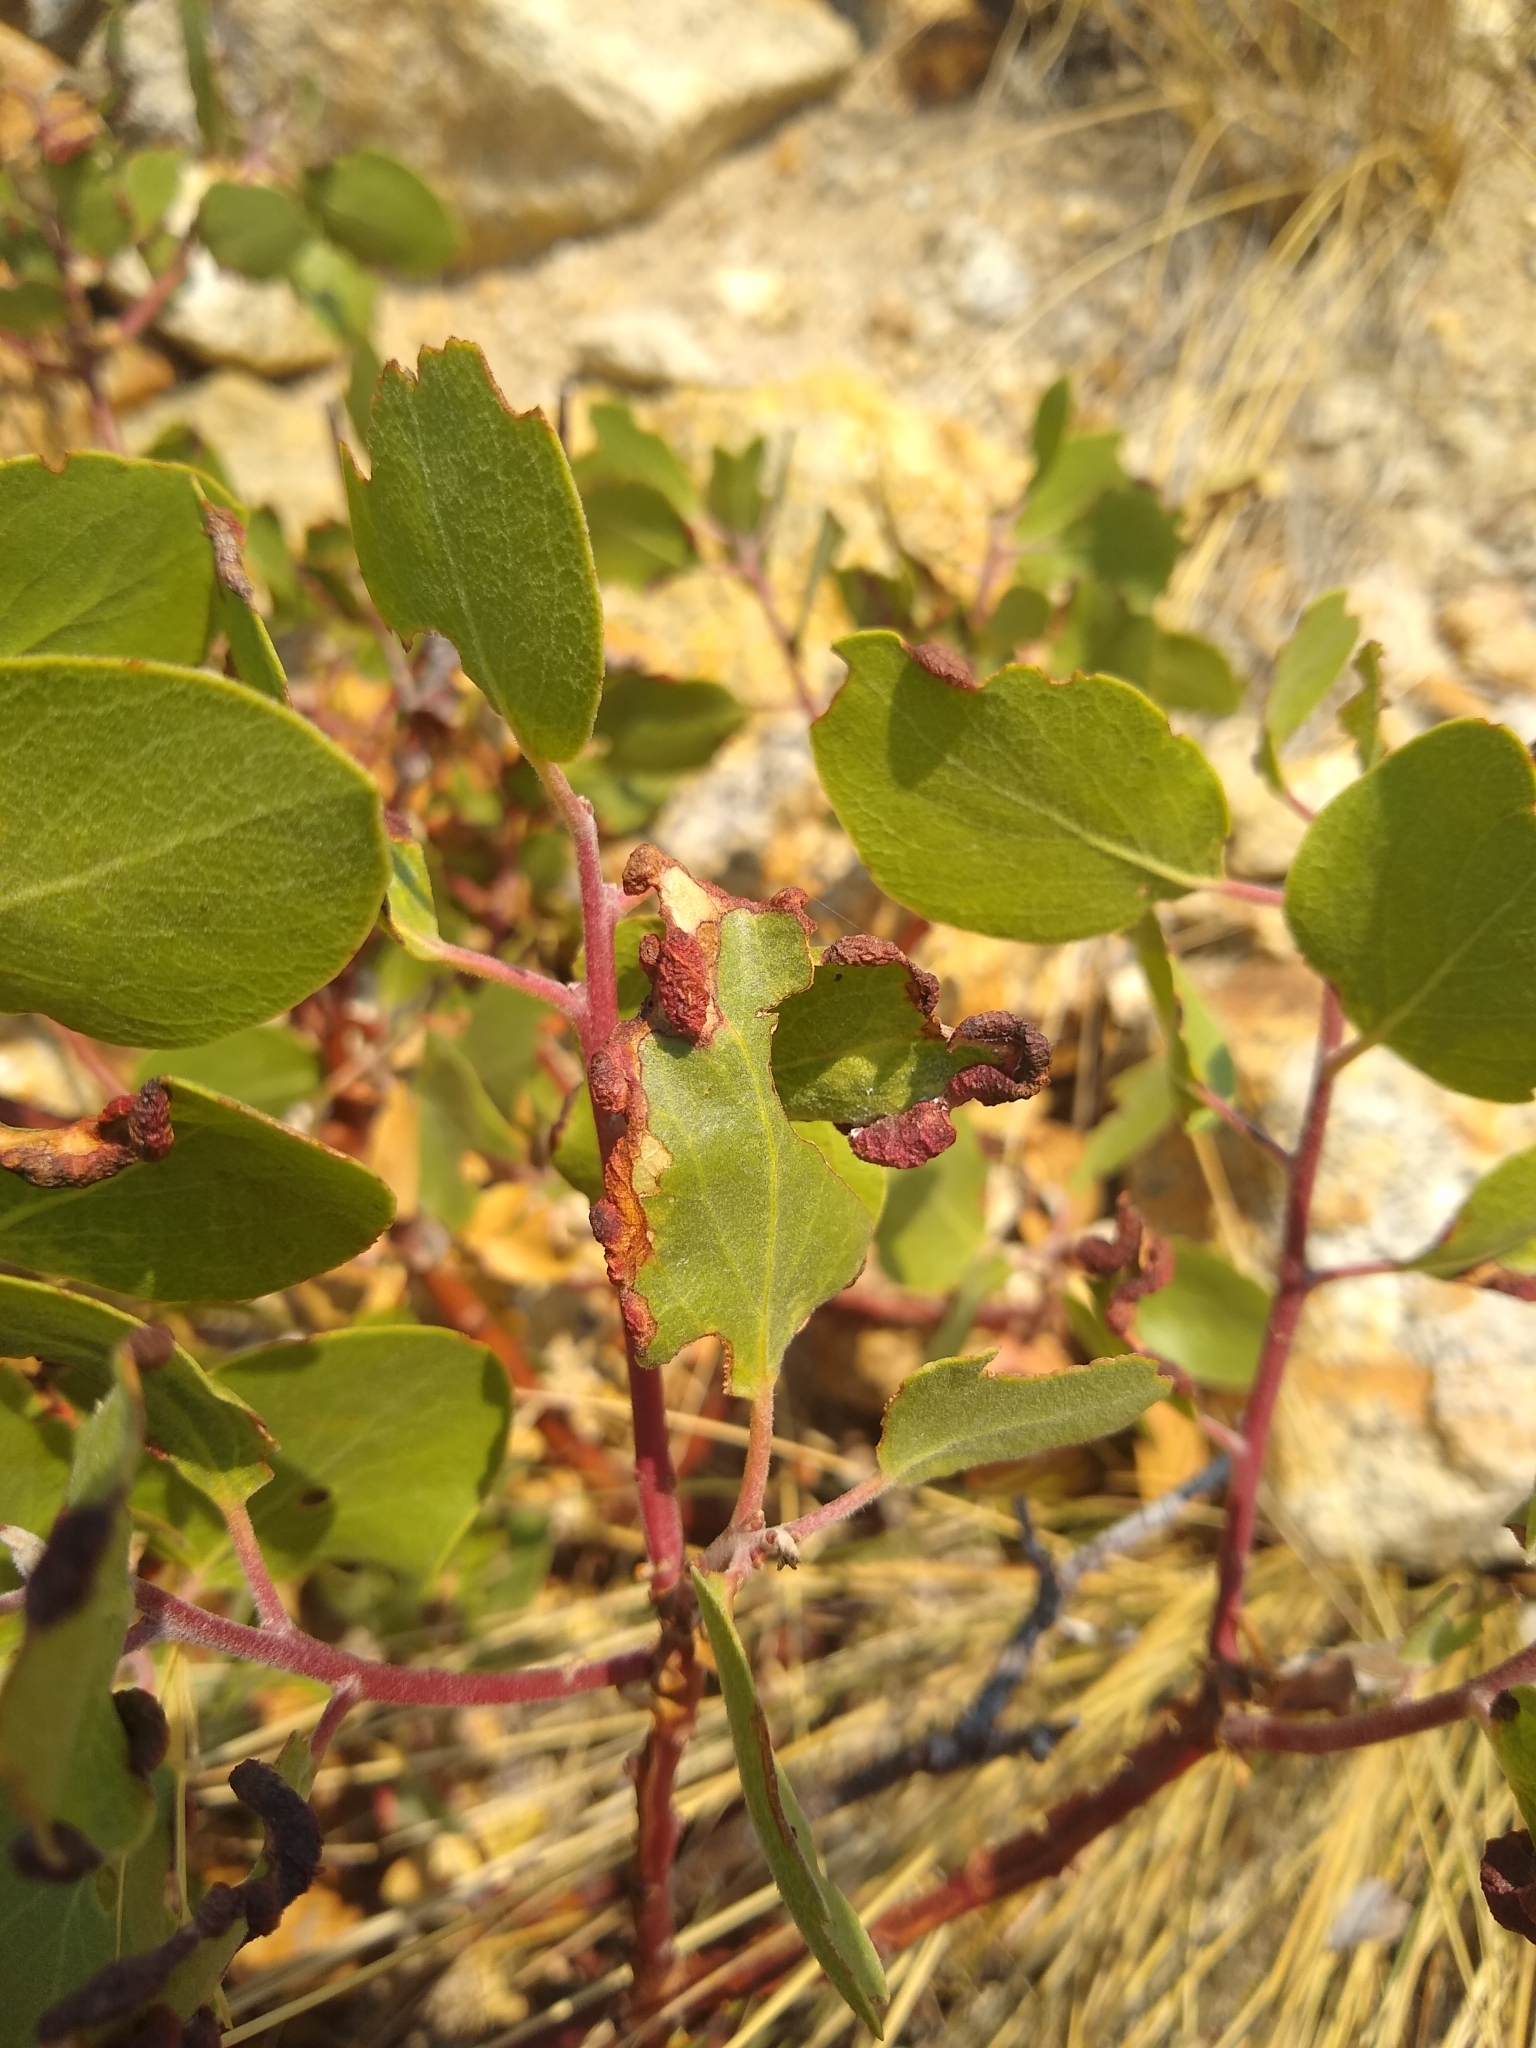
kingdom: Plantae
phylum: Tracheophyta
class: Magnoliopsida
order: Ericales
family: Ericaceae
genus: Arctostaphylos
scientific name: Arctostaphylos patula
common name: Green-leaf manzanita
